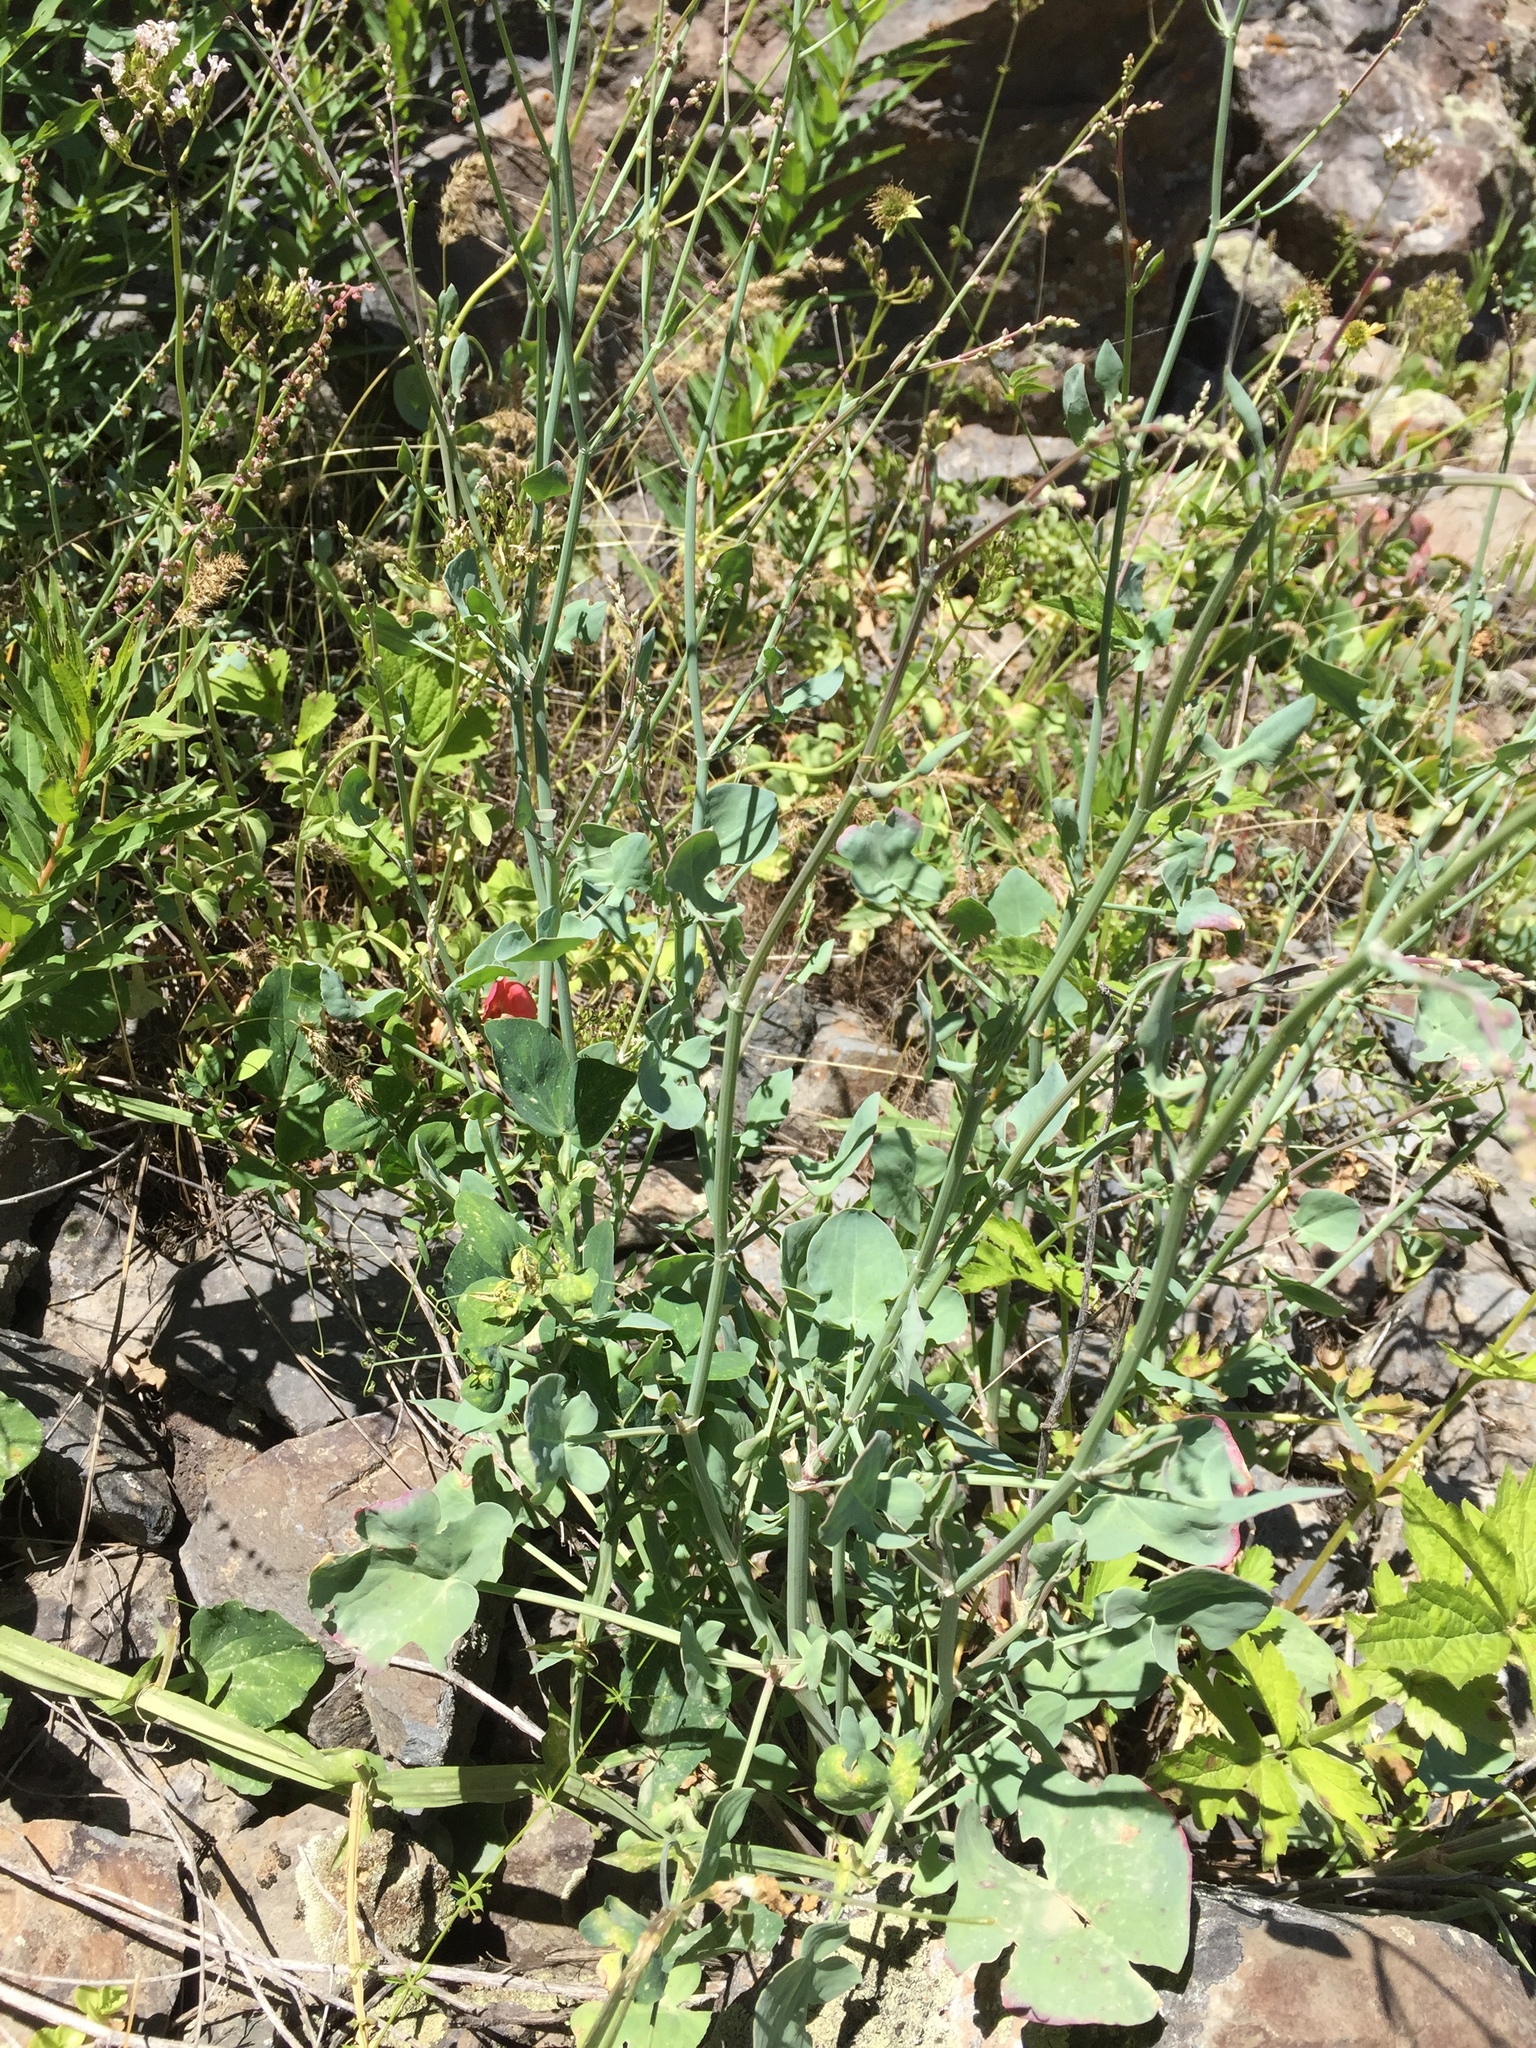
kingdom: Plantae
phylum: Tracheophyta
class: Magnoliopsida
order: Caryophyllales
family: Polygonaceae
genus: Rumex
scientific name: Rumex scutatus
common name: French sorrel
